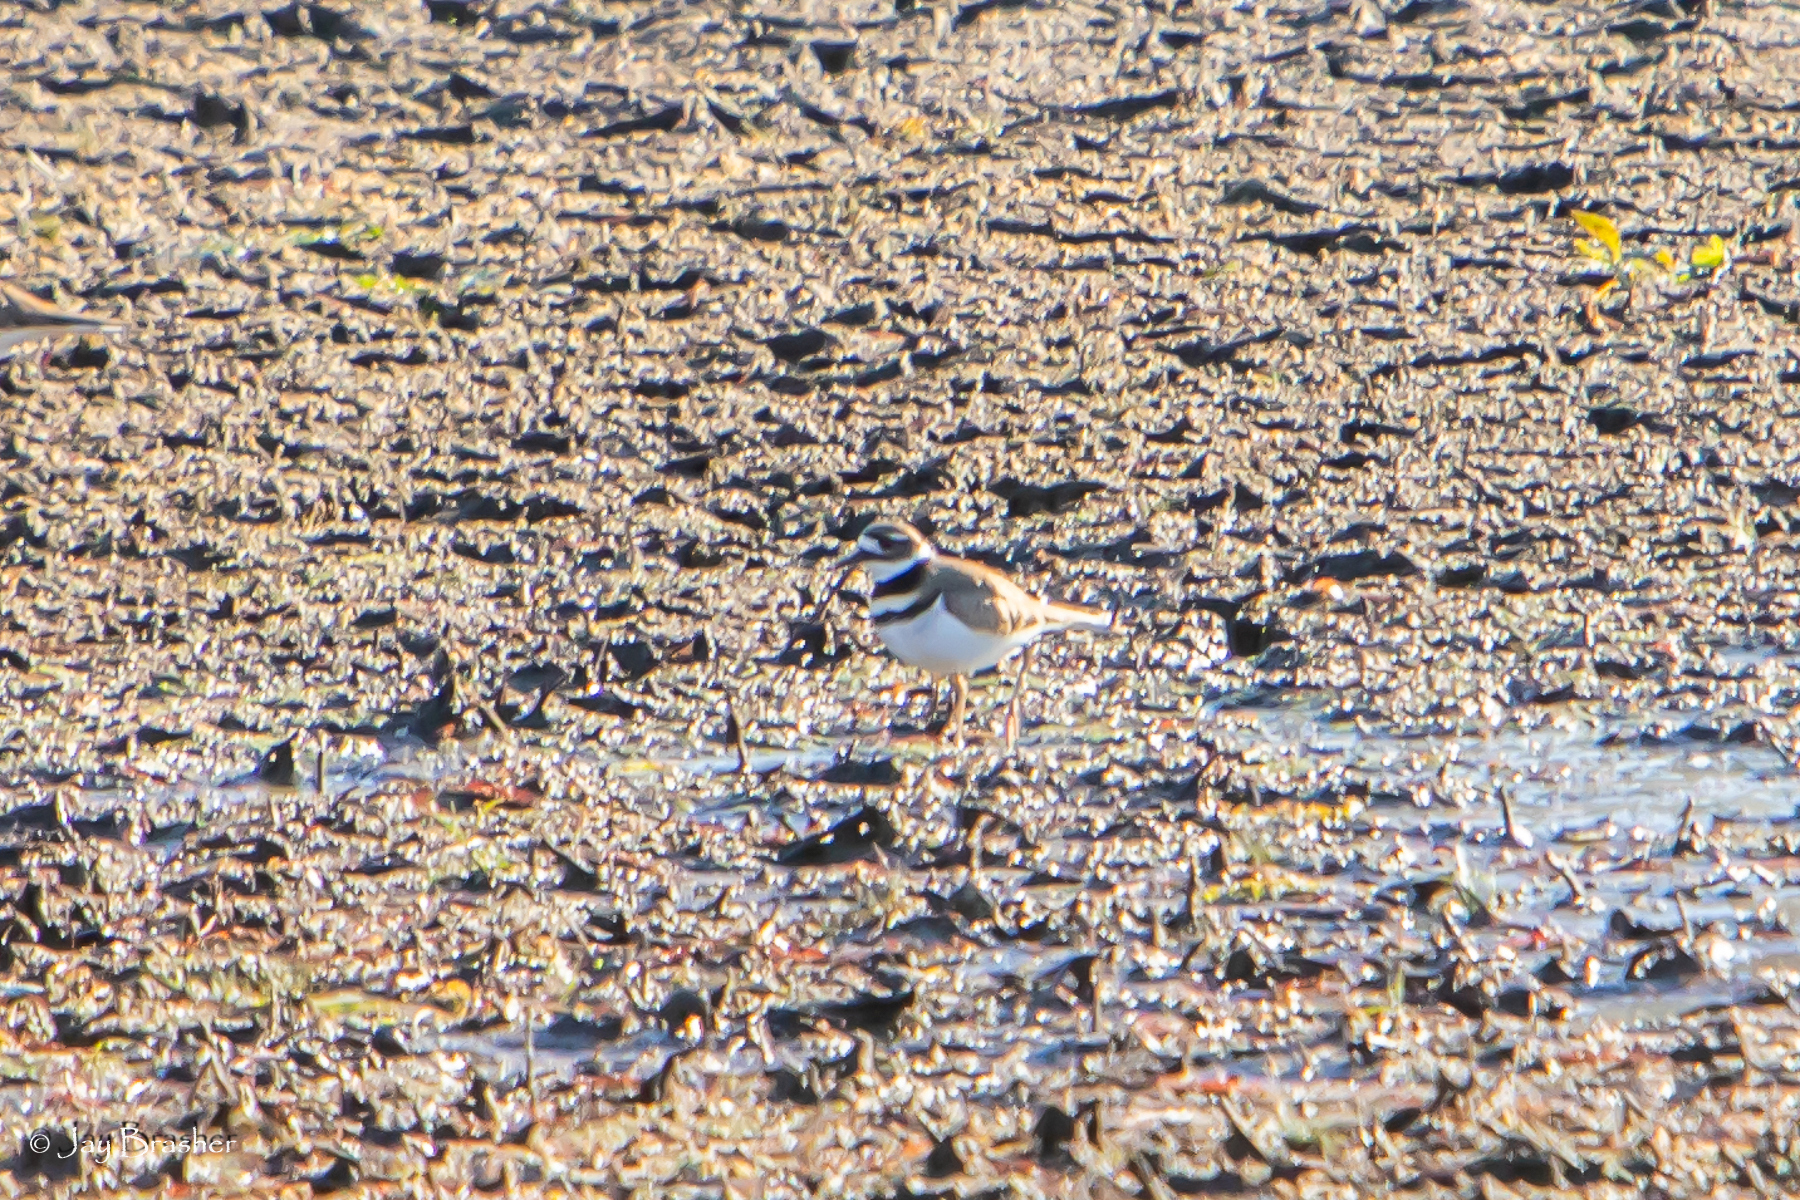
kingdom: Animalia
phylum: Chordata
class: Aves
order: Charadriiformes
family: Charadriidae
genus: Charadrius
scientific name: Charadrius vociferus
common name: Killdeer
